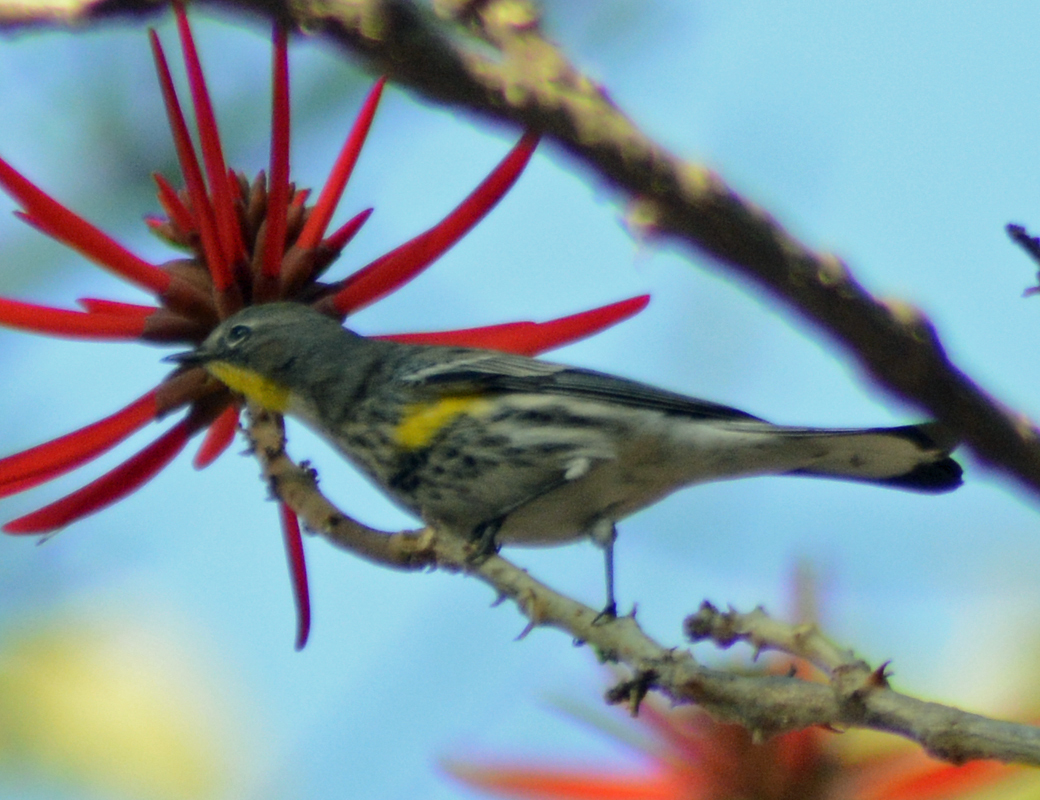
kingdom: Animalia
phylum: Chordata
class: Aves
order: Passeriformes
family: Parulidae
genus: Setophaga
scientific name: Setophaga auduboni
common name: Audubon's warbler
